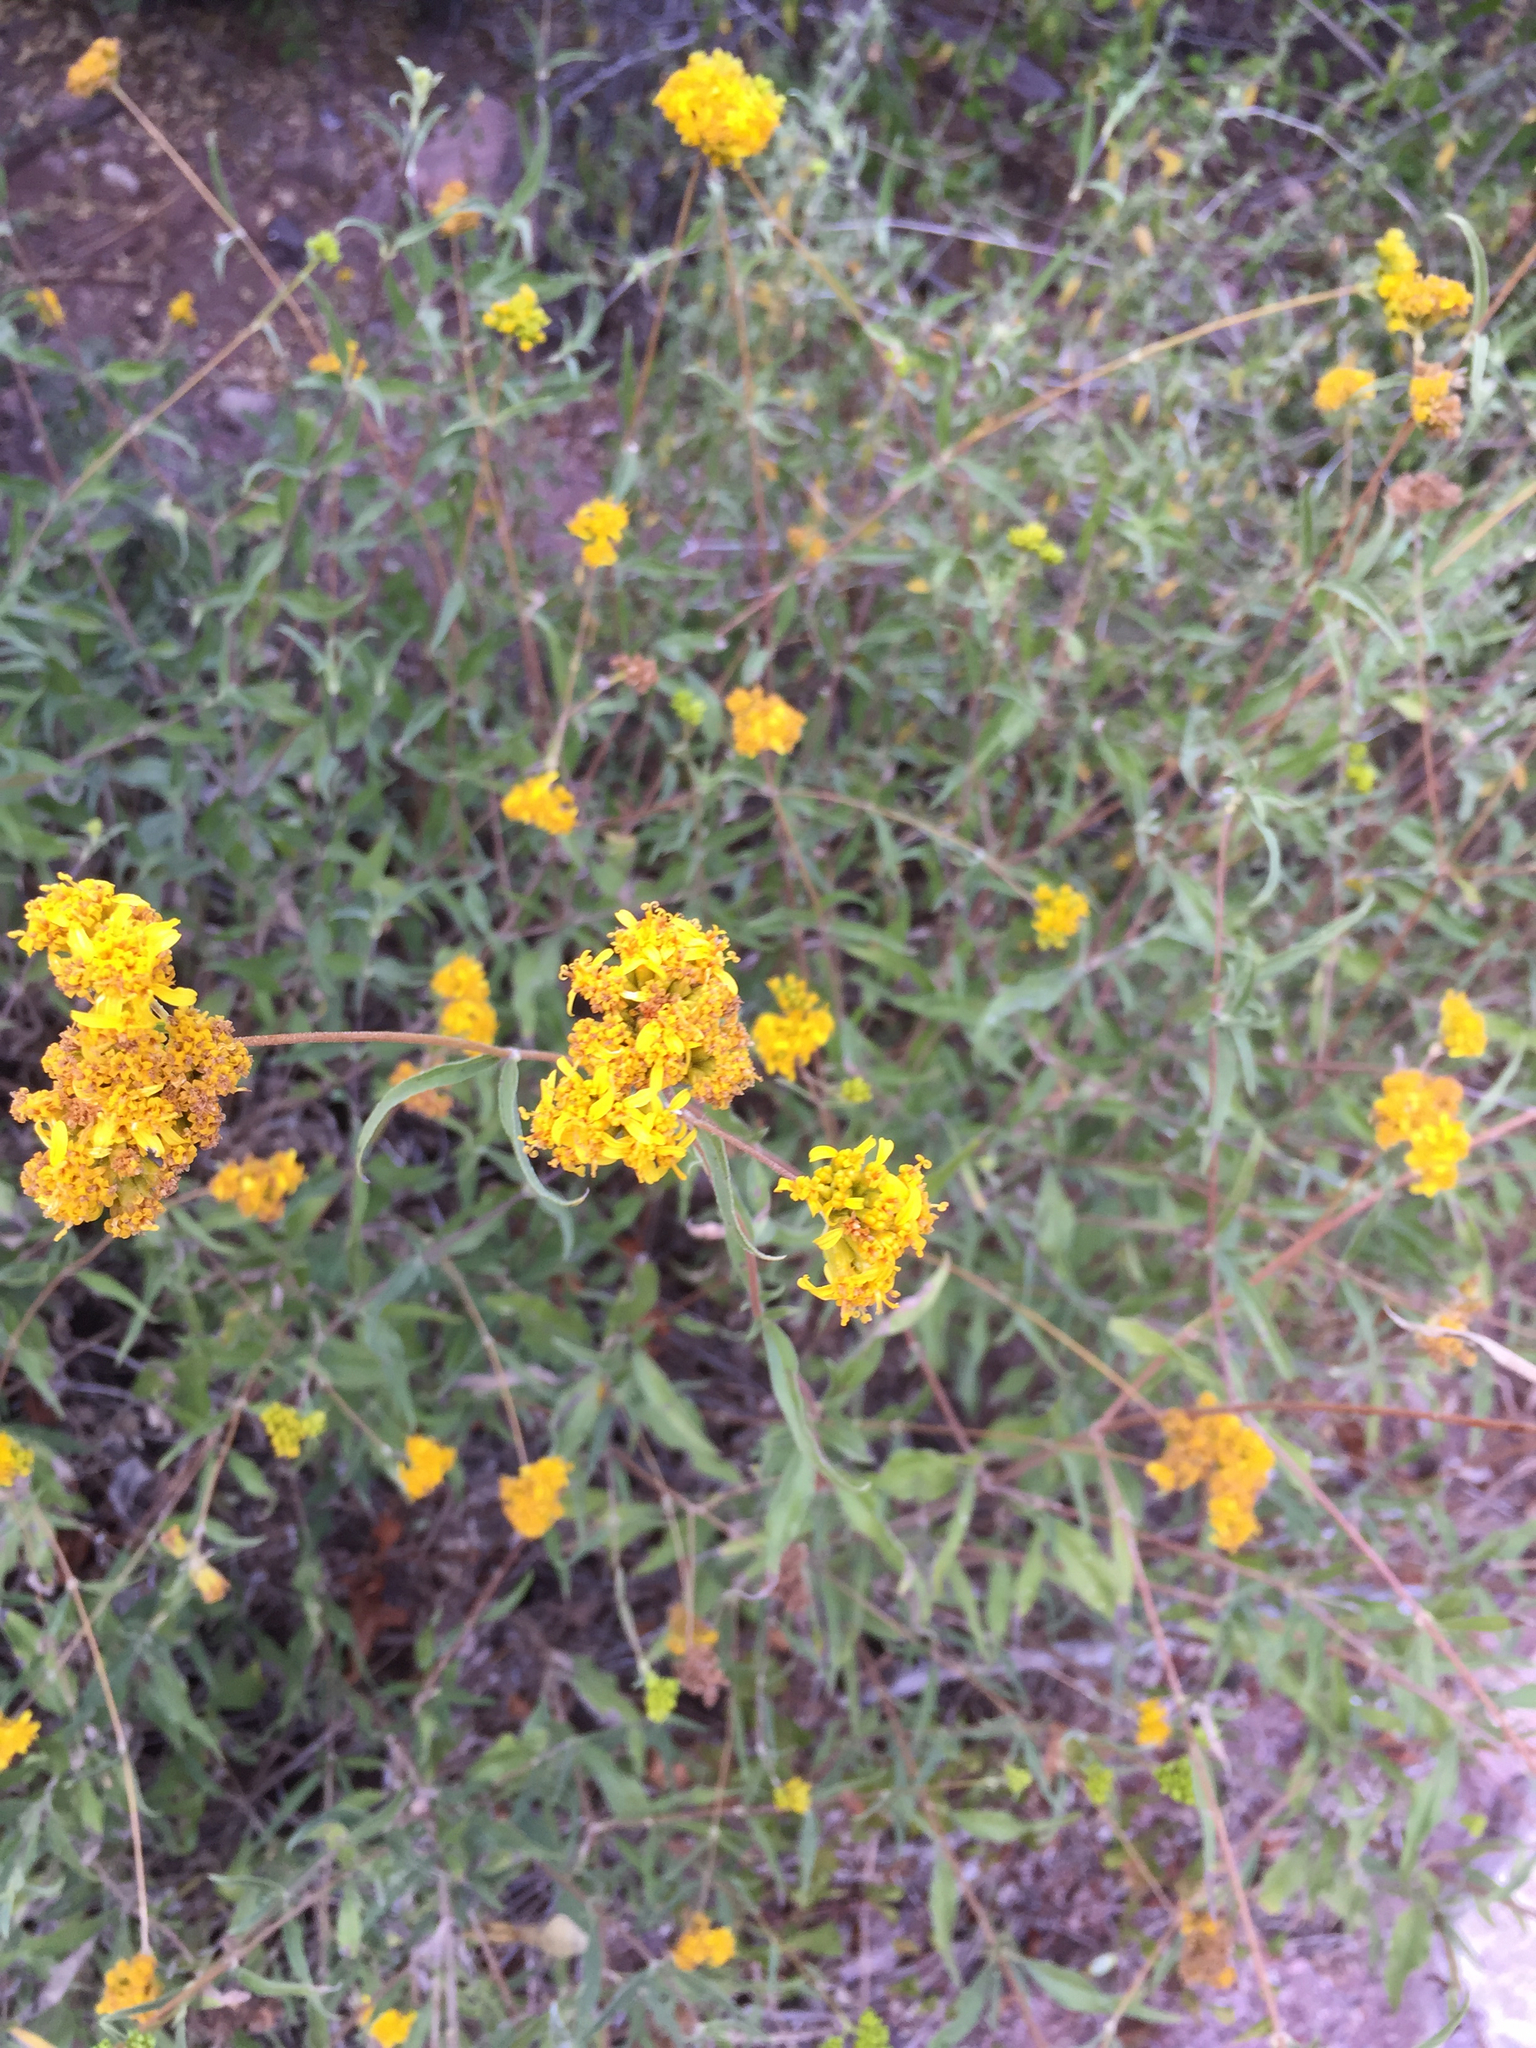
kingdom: Plantae
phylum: Tracheophyta
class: Magnoliopsida
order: Asterales
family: Asteraceae
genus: Aldama
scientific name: Aldama glomerata
